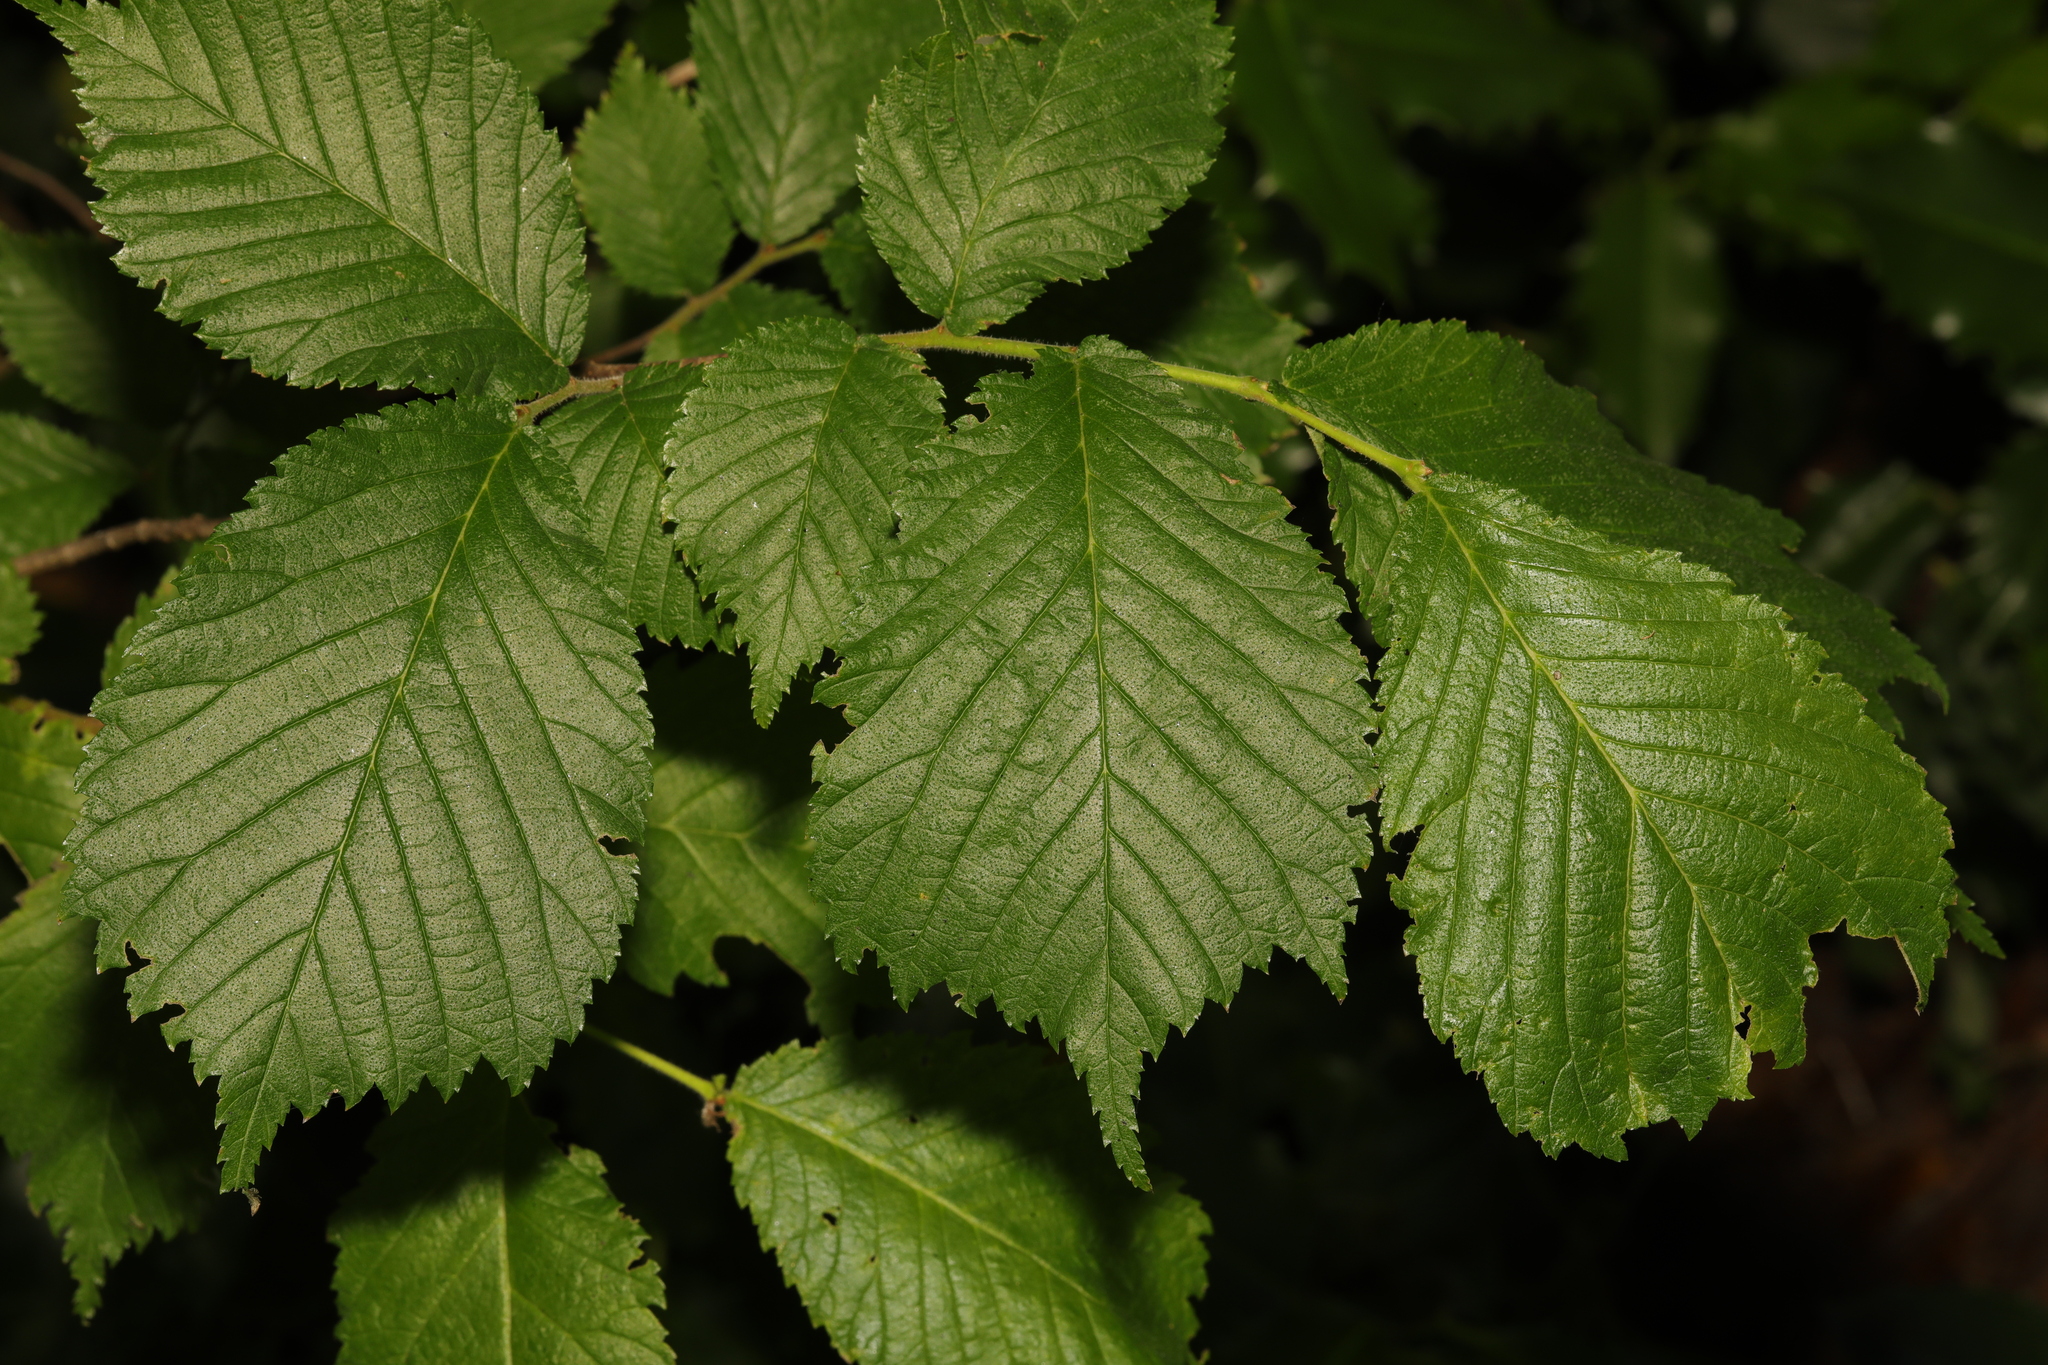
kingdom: Plantae
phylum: Tracheophyta
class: Magnoliopsida
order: Rosales
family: Ulmaceae
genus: Ulmus
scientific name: Ulmus glabra
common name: Wych elm
